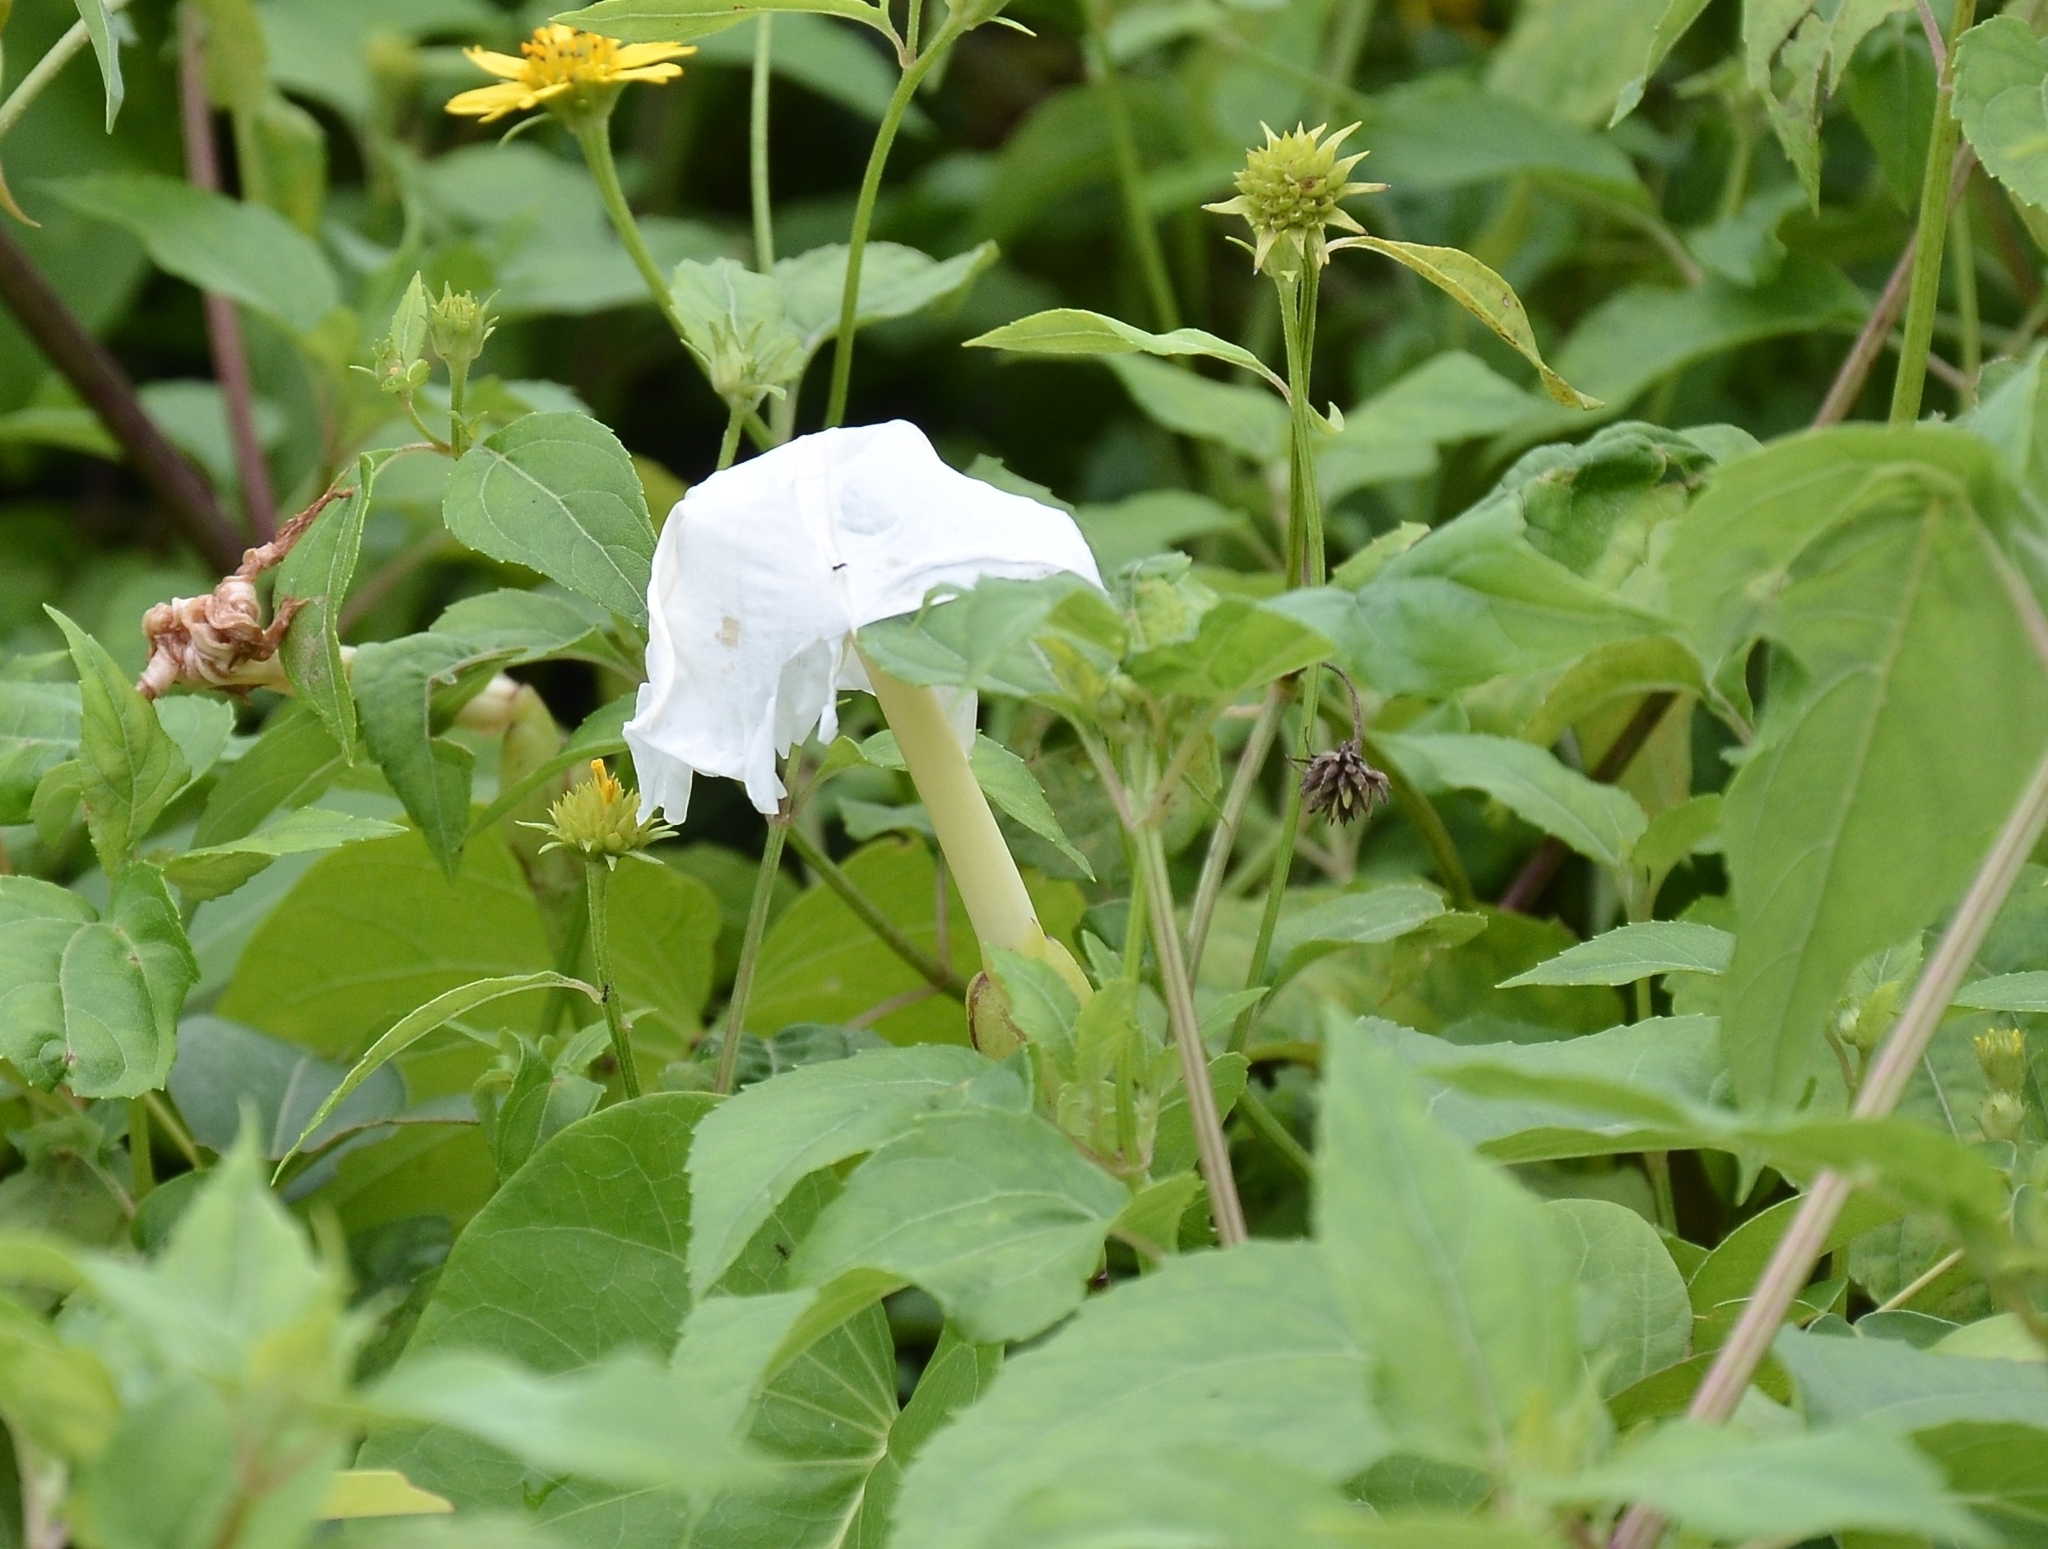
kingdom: Plantae
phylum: Tracheophyta
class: Magnoliopsida
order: Solanales
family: Convolvulaceae
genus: Ipomoea
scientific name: Ipomoea violacea
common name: Beach moonflower
